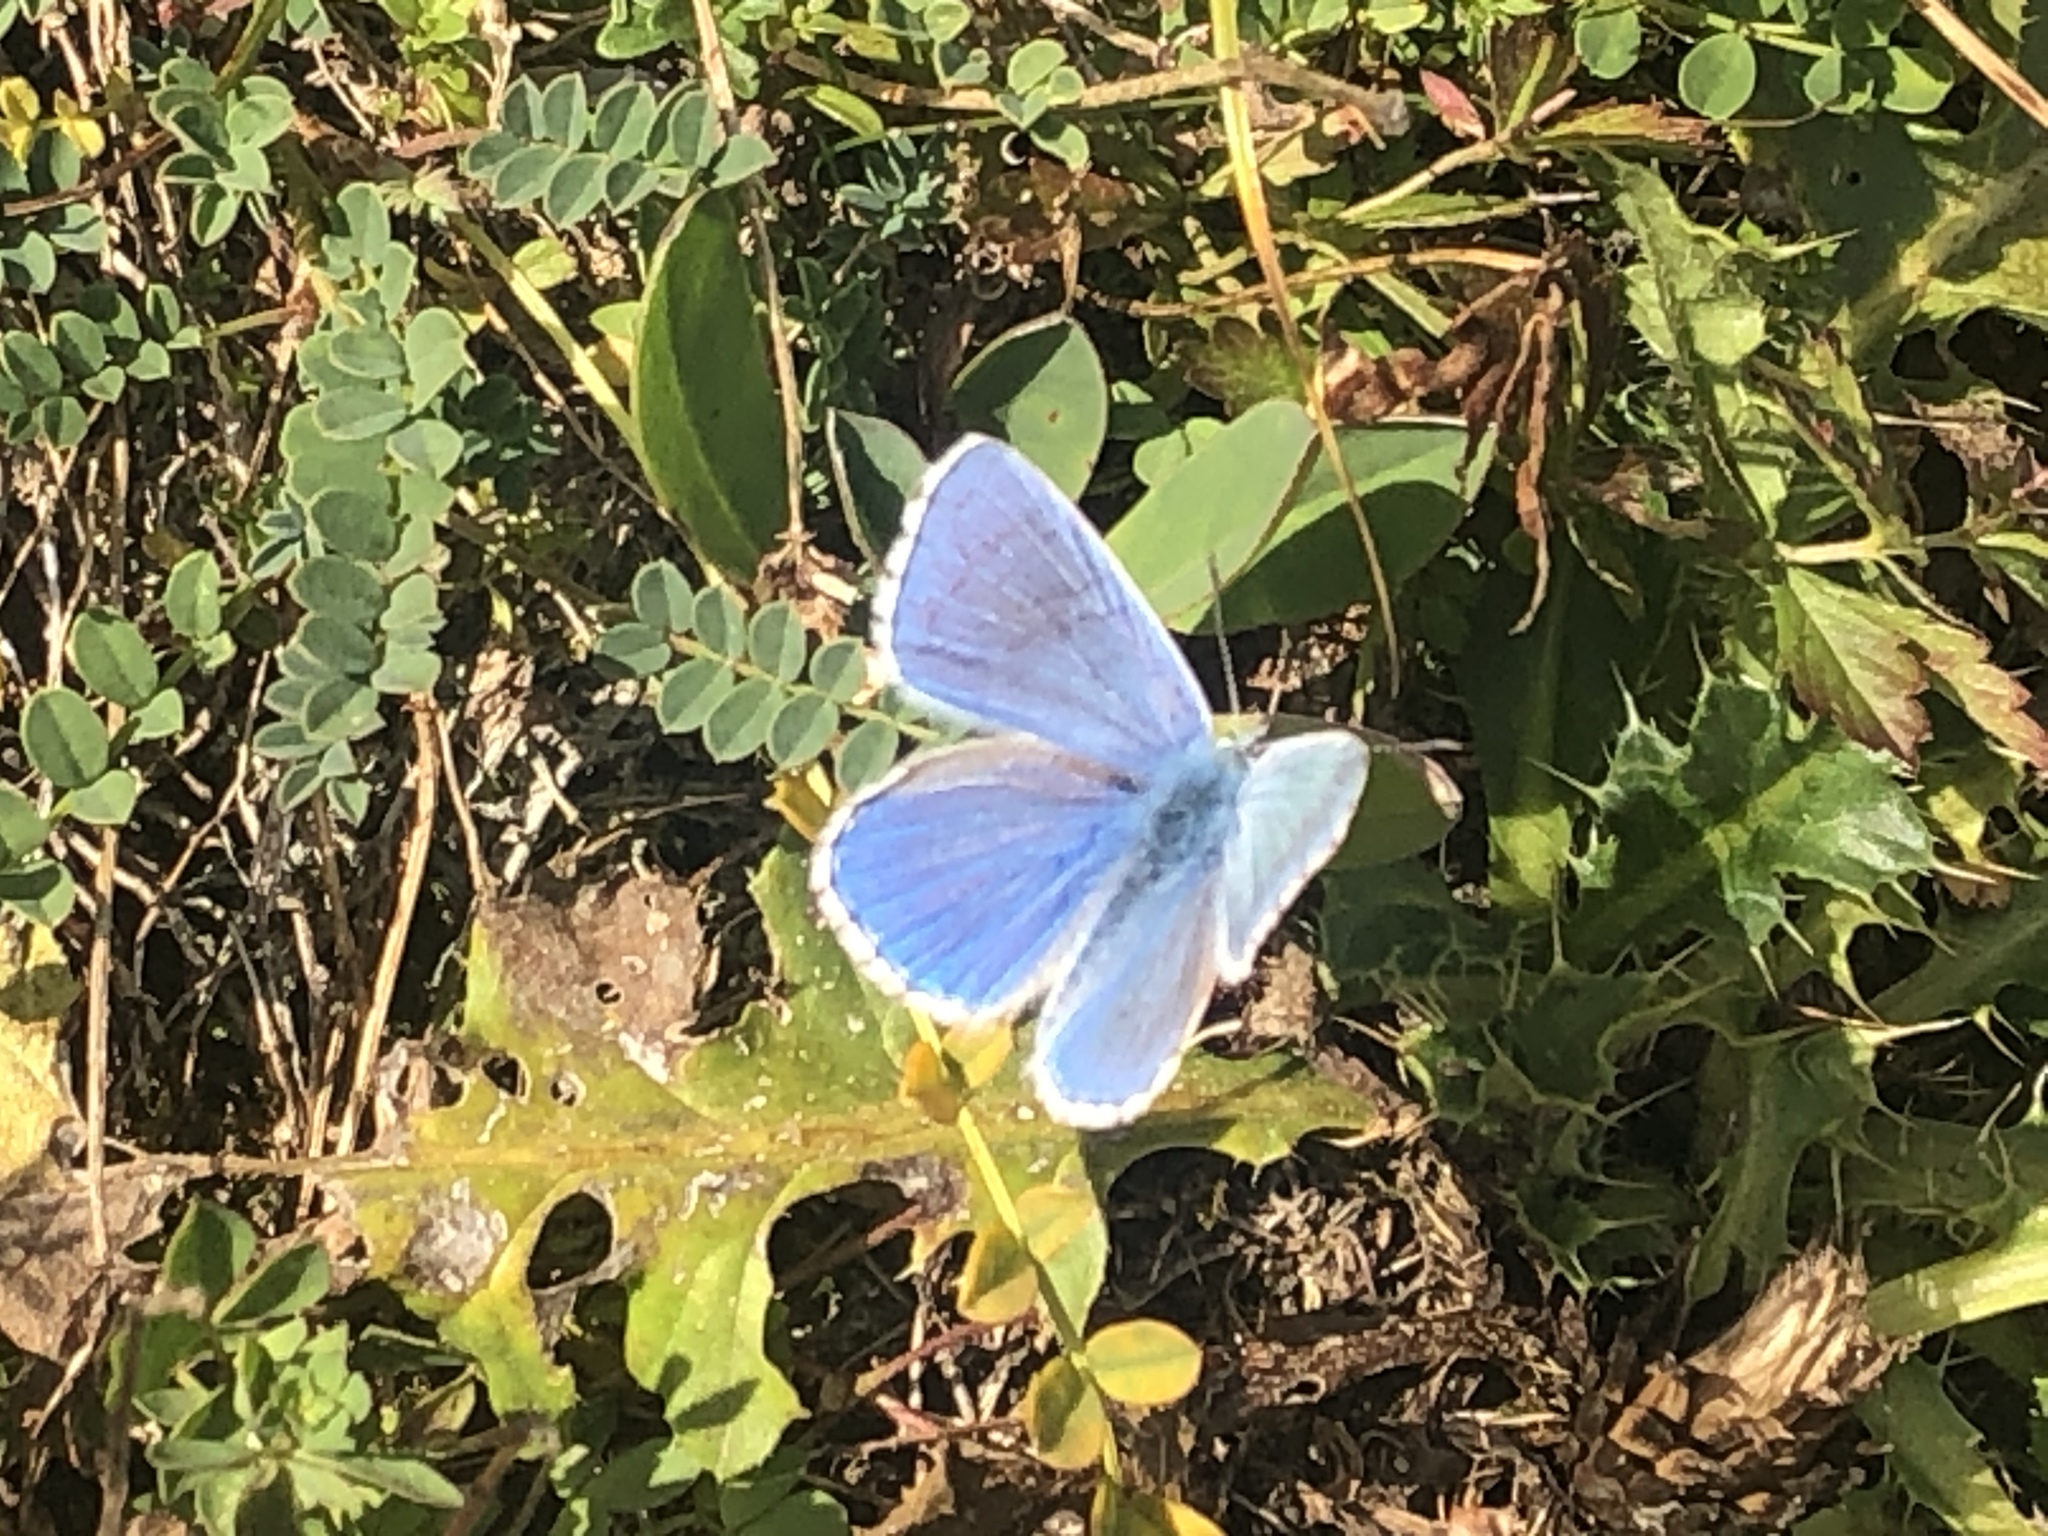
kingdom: Animalia
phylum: Arthropoda
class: Insecta
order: Lepidoptera
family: Lycaenidae
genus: Lysandra
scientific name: Lysandra bellargus
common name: Adonis blue
